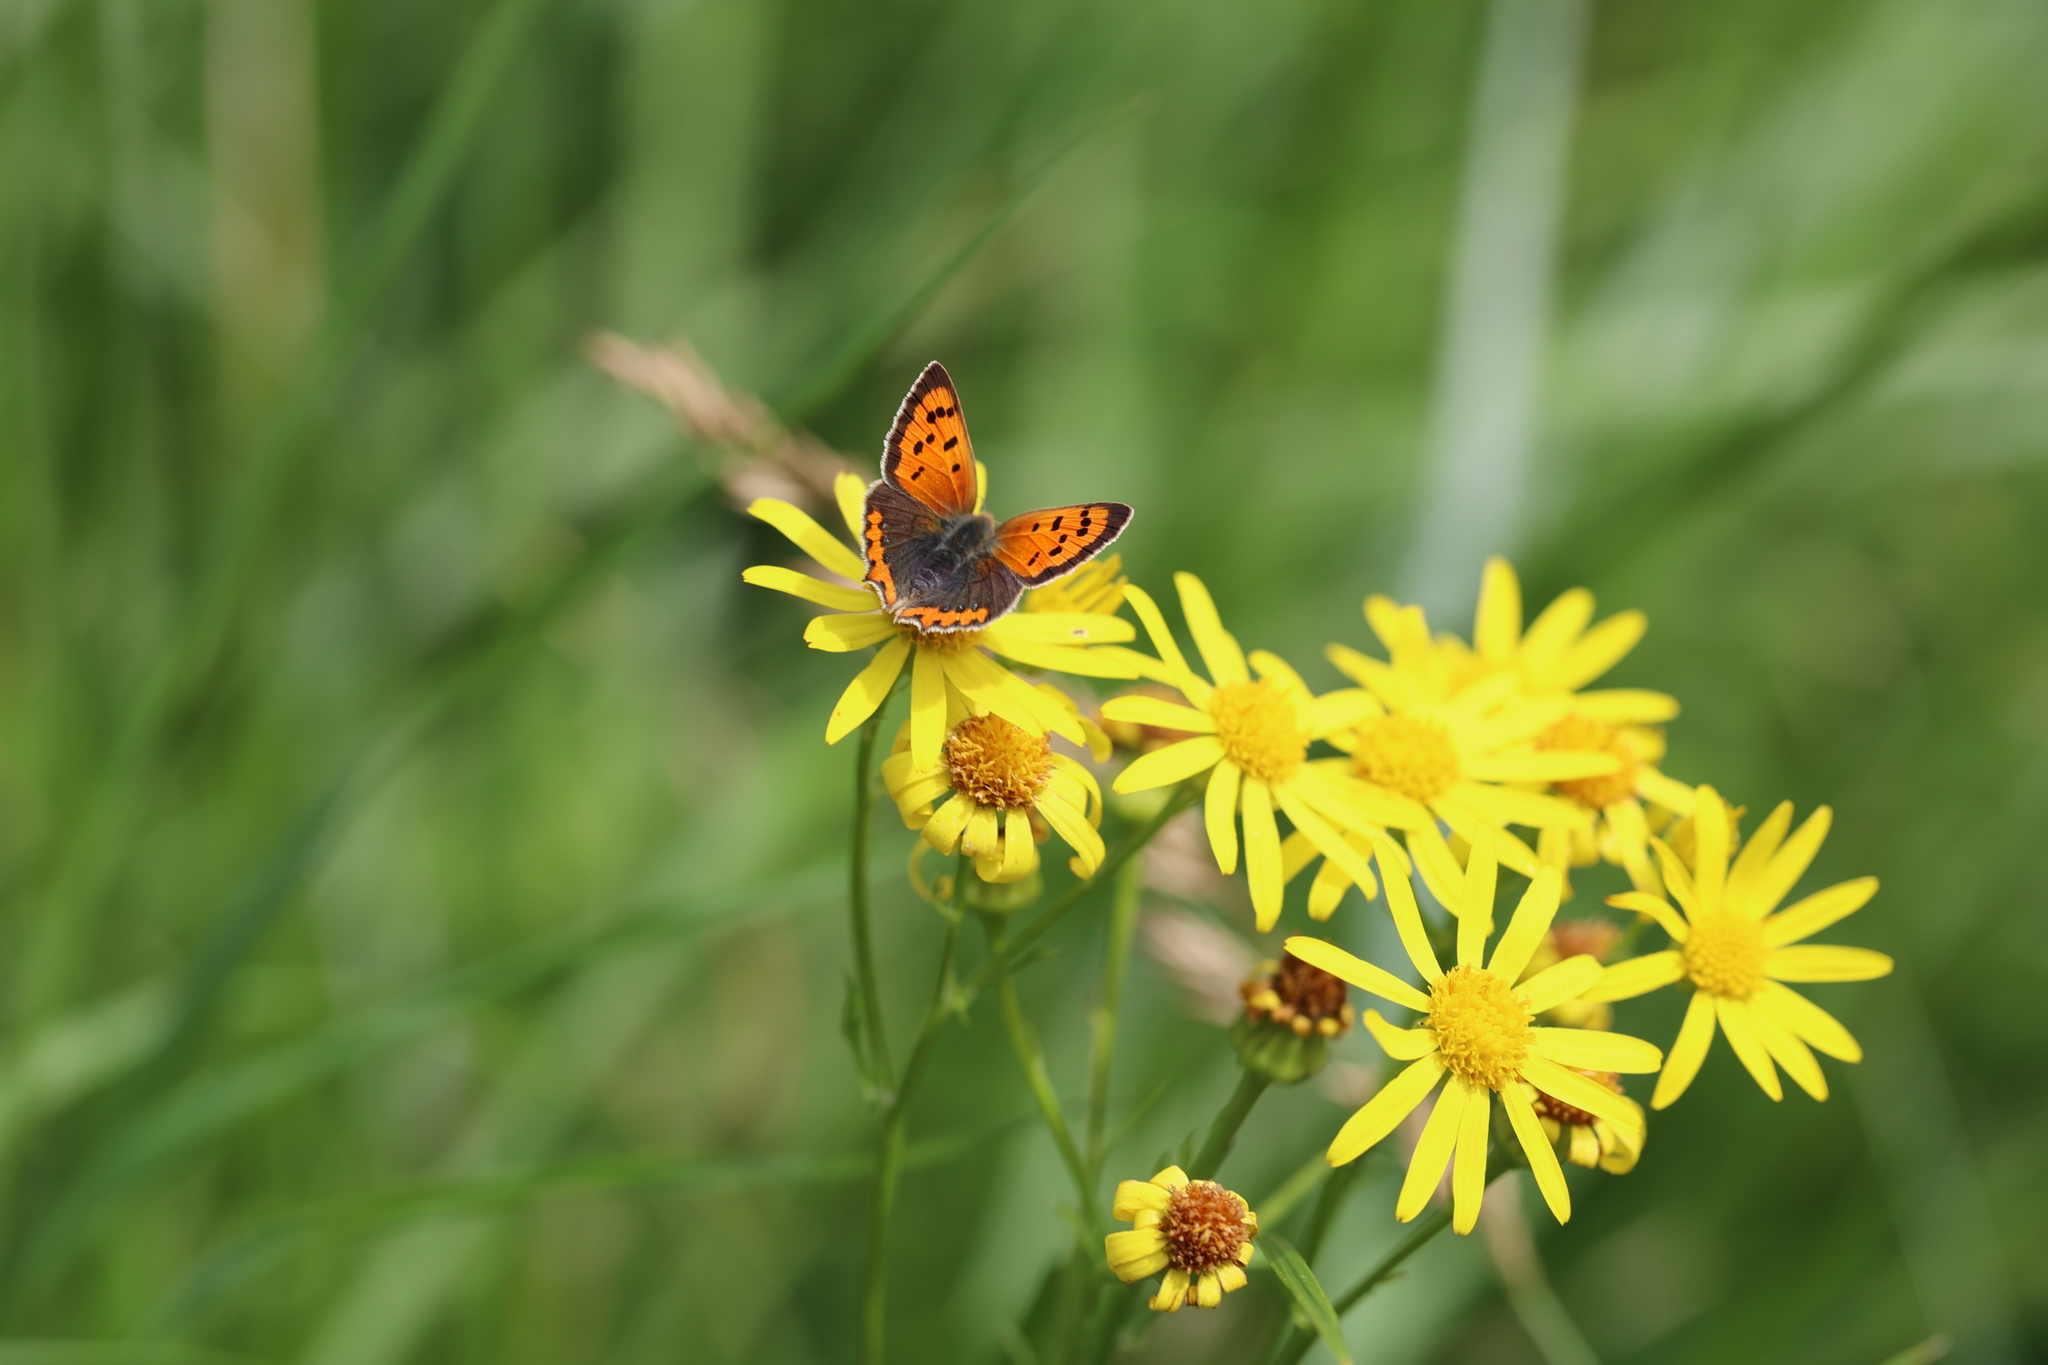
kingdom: Animalia
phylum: Arthropoda
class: Insecta
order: Lepidoptera
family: Lycaenidae
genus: Lycaena
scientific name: Lycaena phlaeas
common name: Small copper
